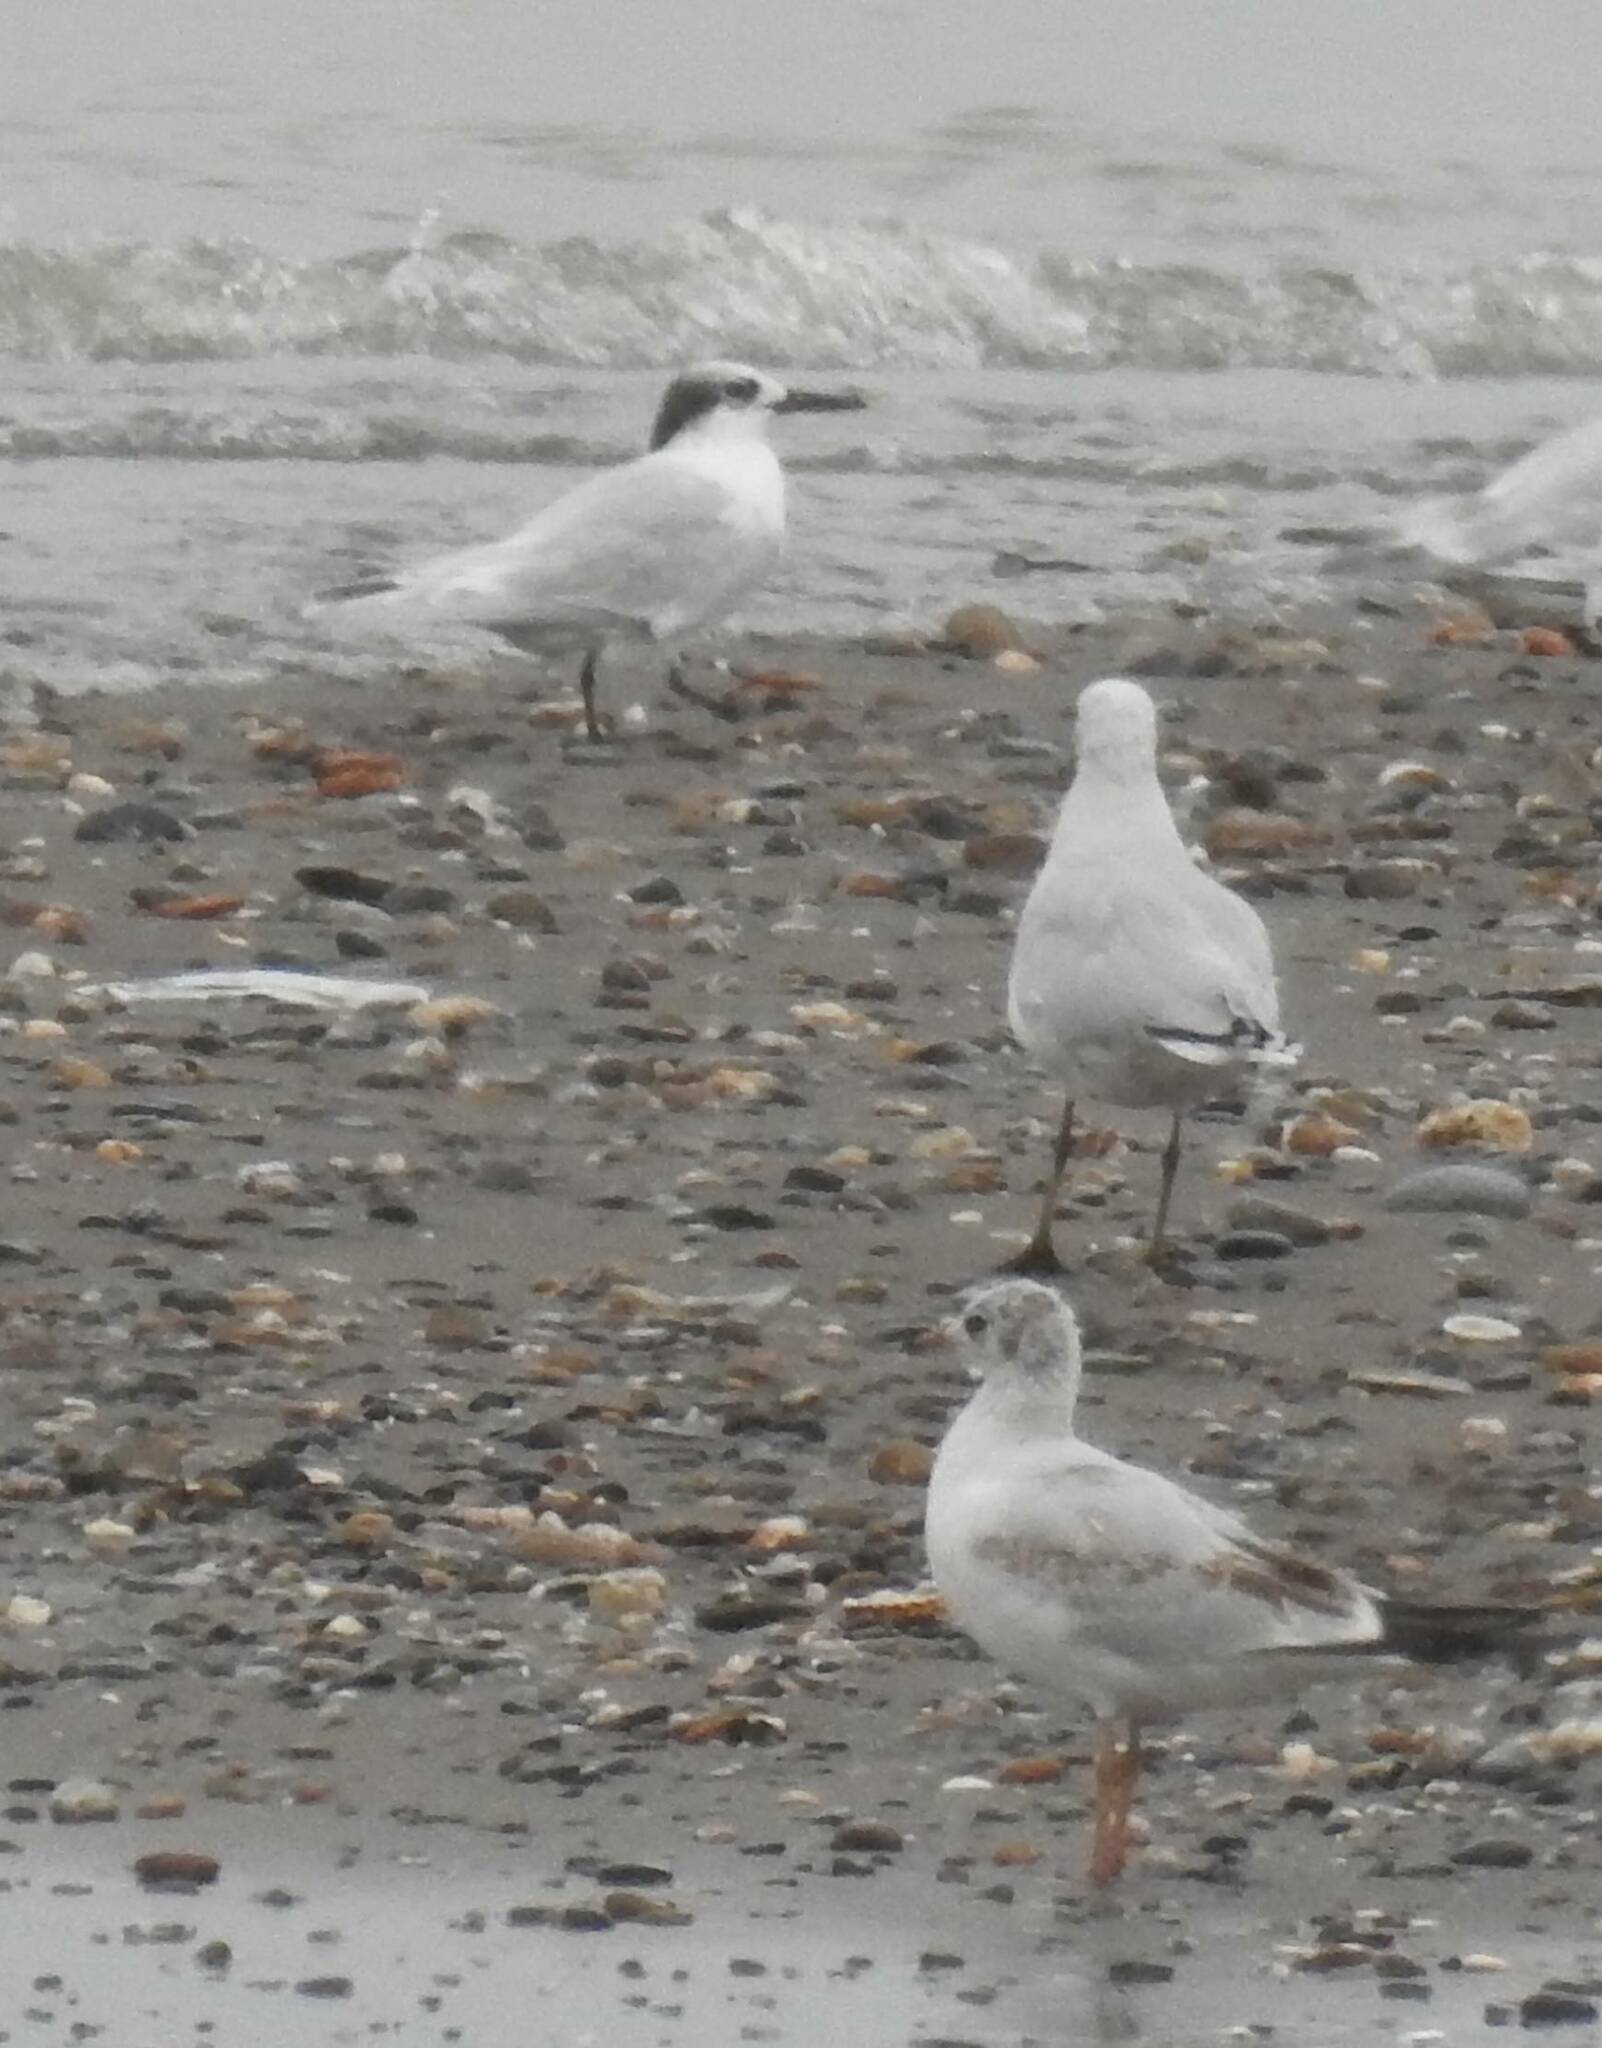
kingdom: Animalia
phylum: Chordata
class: Aves
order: Charadriiformes
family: Laridae
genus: Ichthyaetus
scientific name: Ichthyaetus melanocephalus
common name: Mediterranean gull
